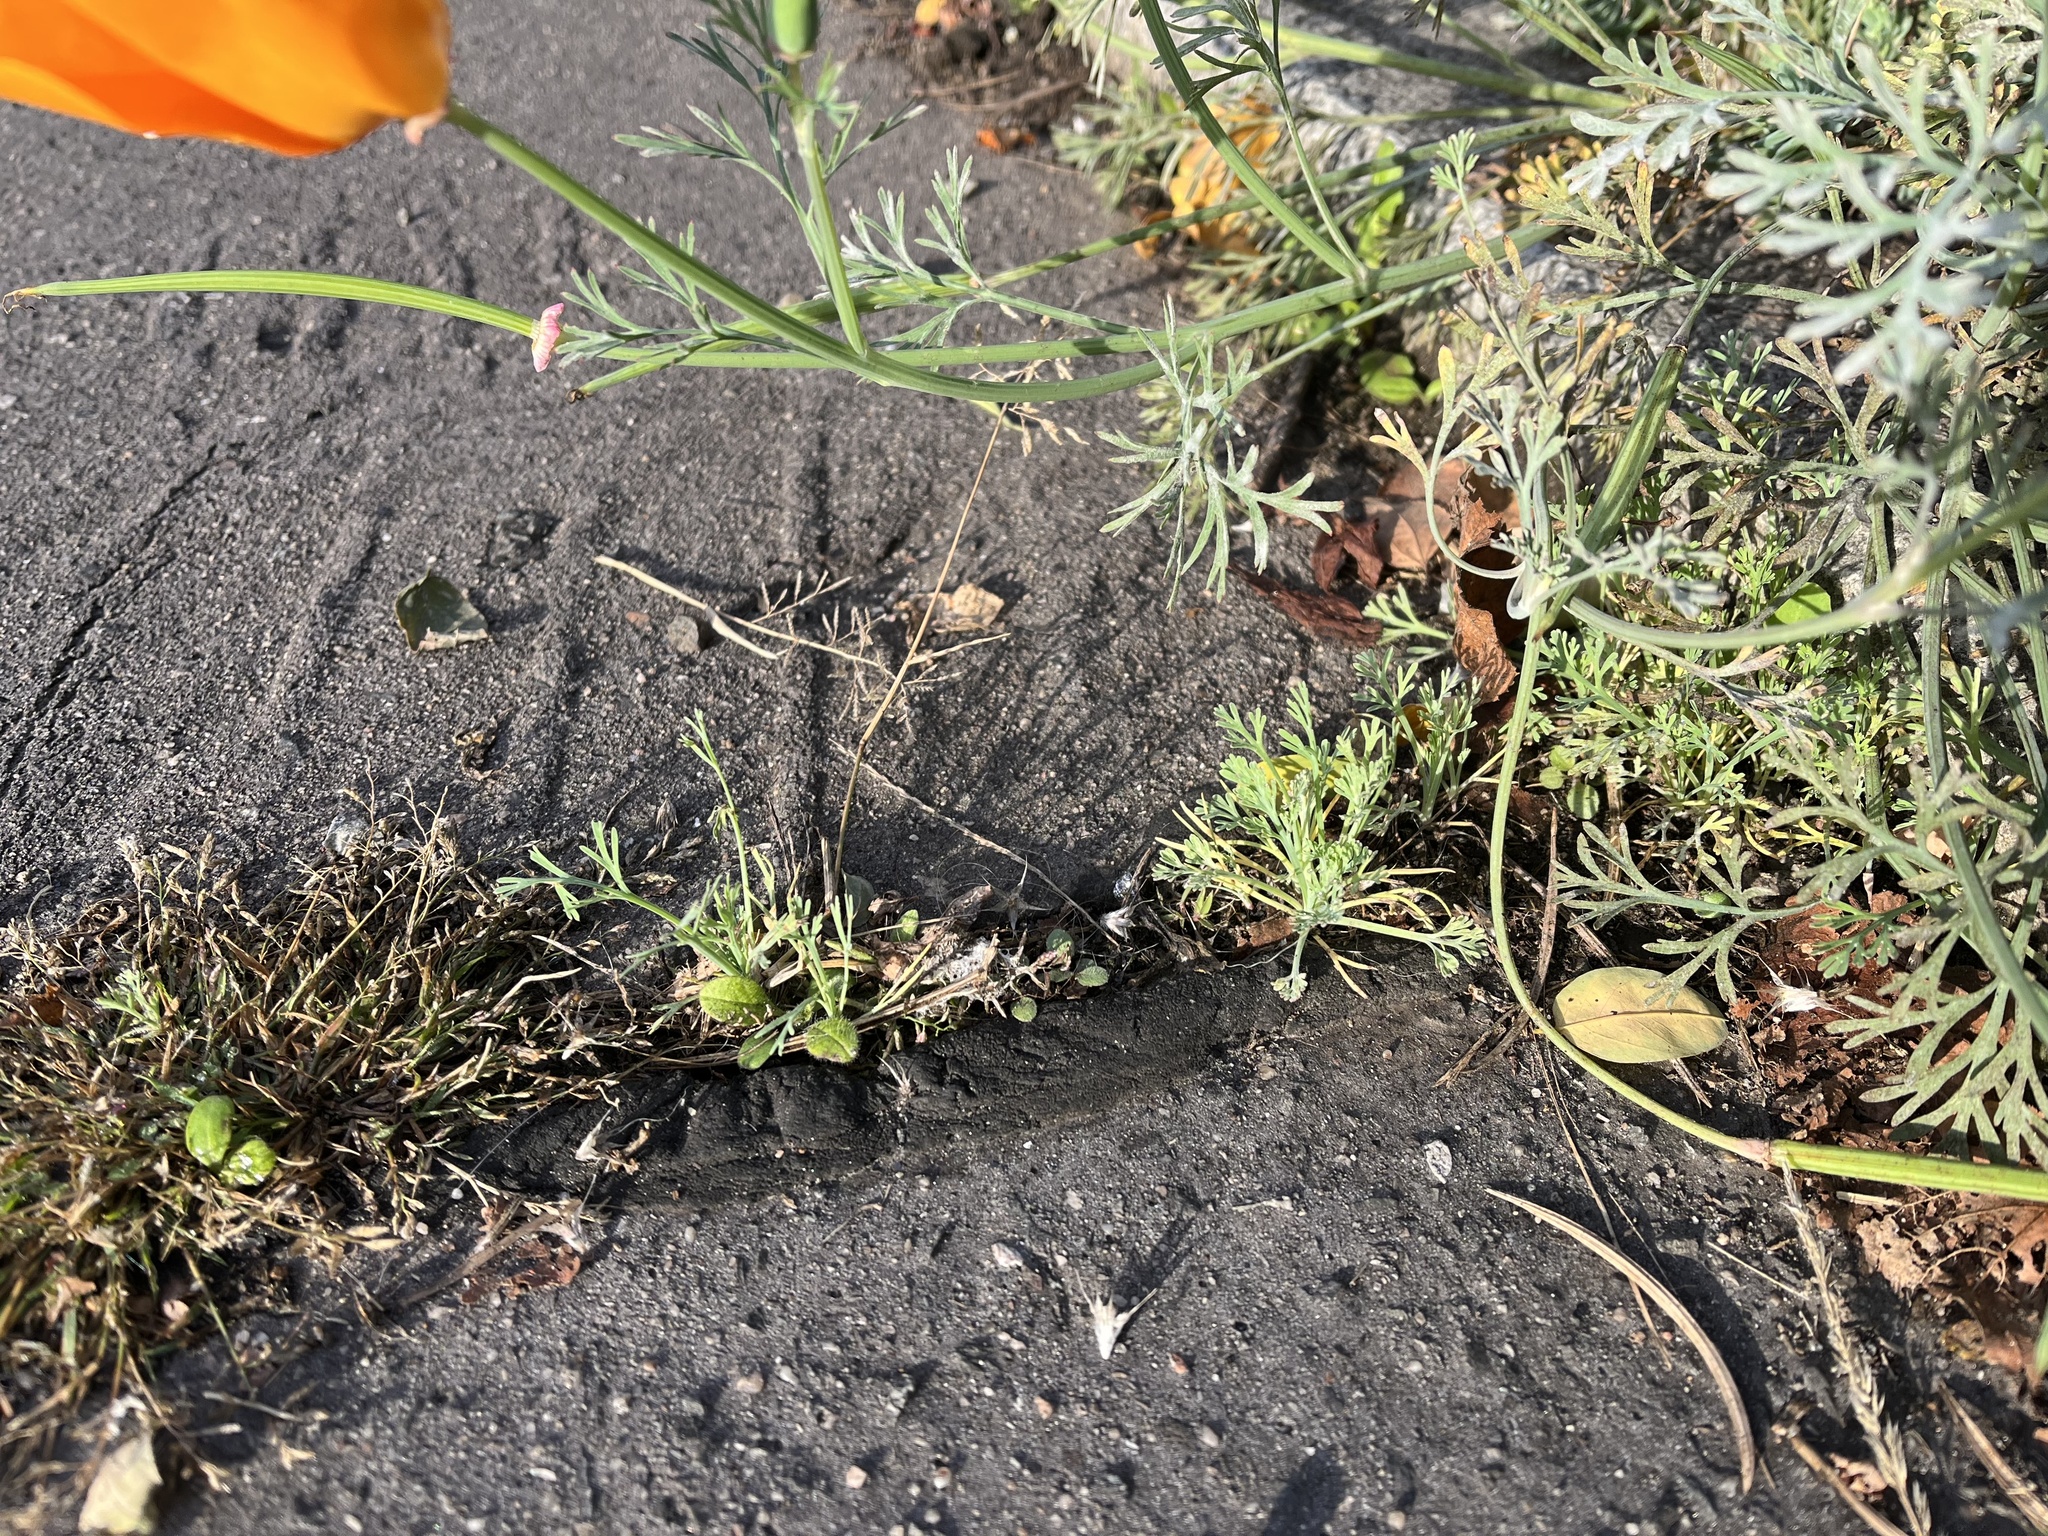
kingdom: Plantae
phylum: Tracheophyta
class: Magnoliopsida
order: Ranunculales
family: Papaveraceae
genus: Eschscholzia
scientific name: Eschscholzia californica
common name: California poppy
